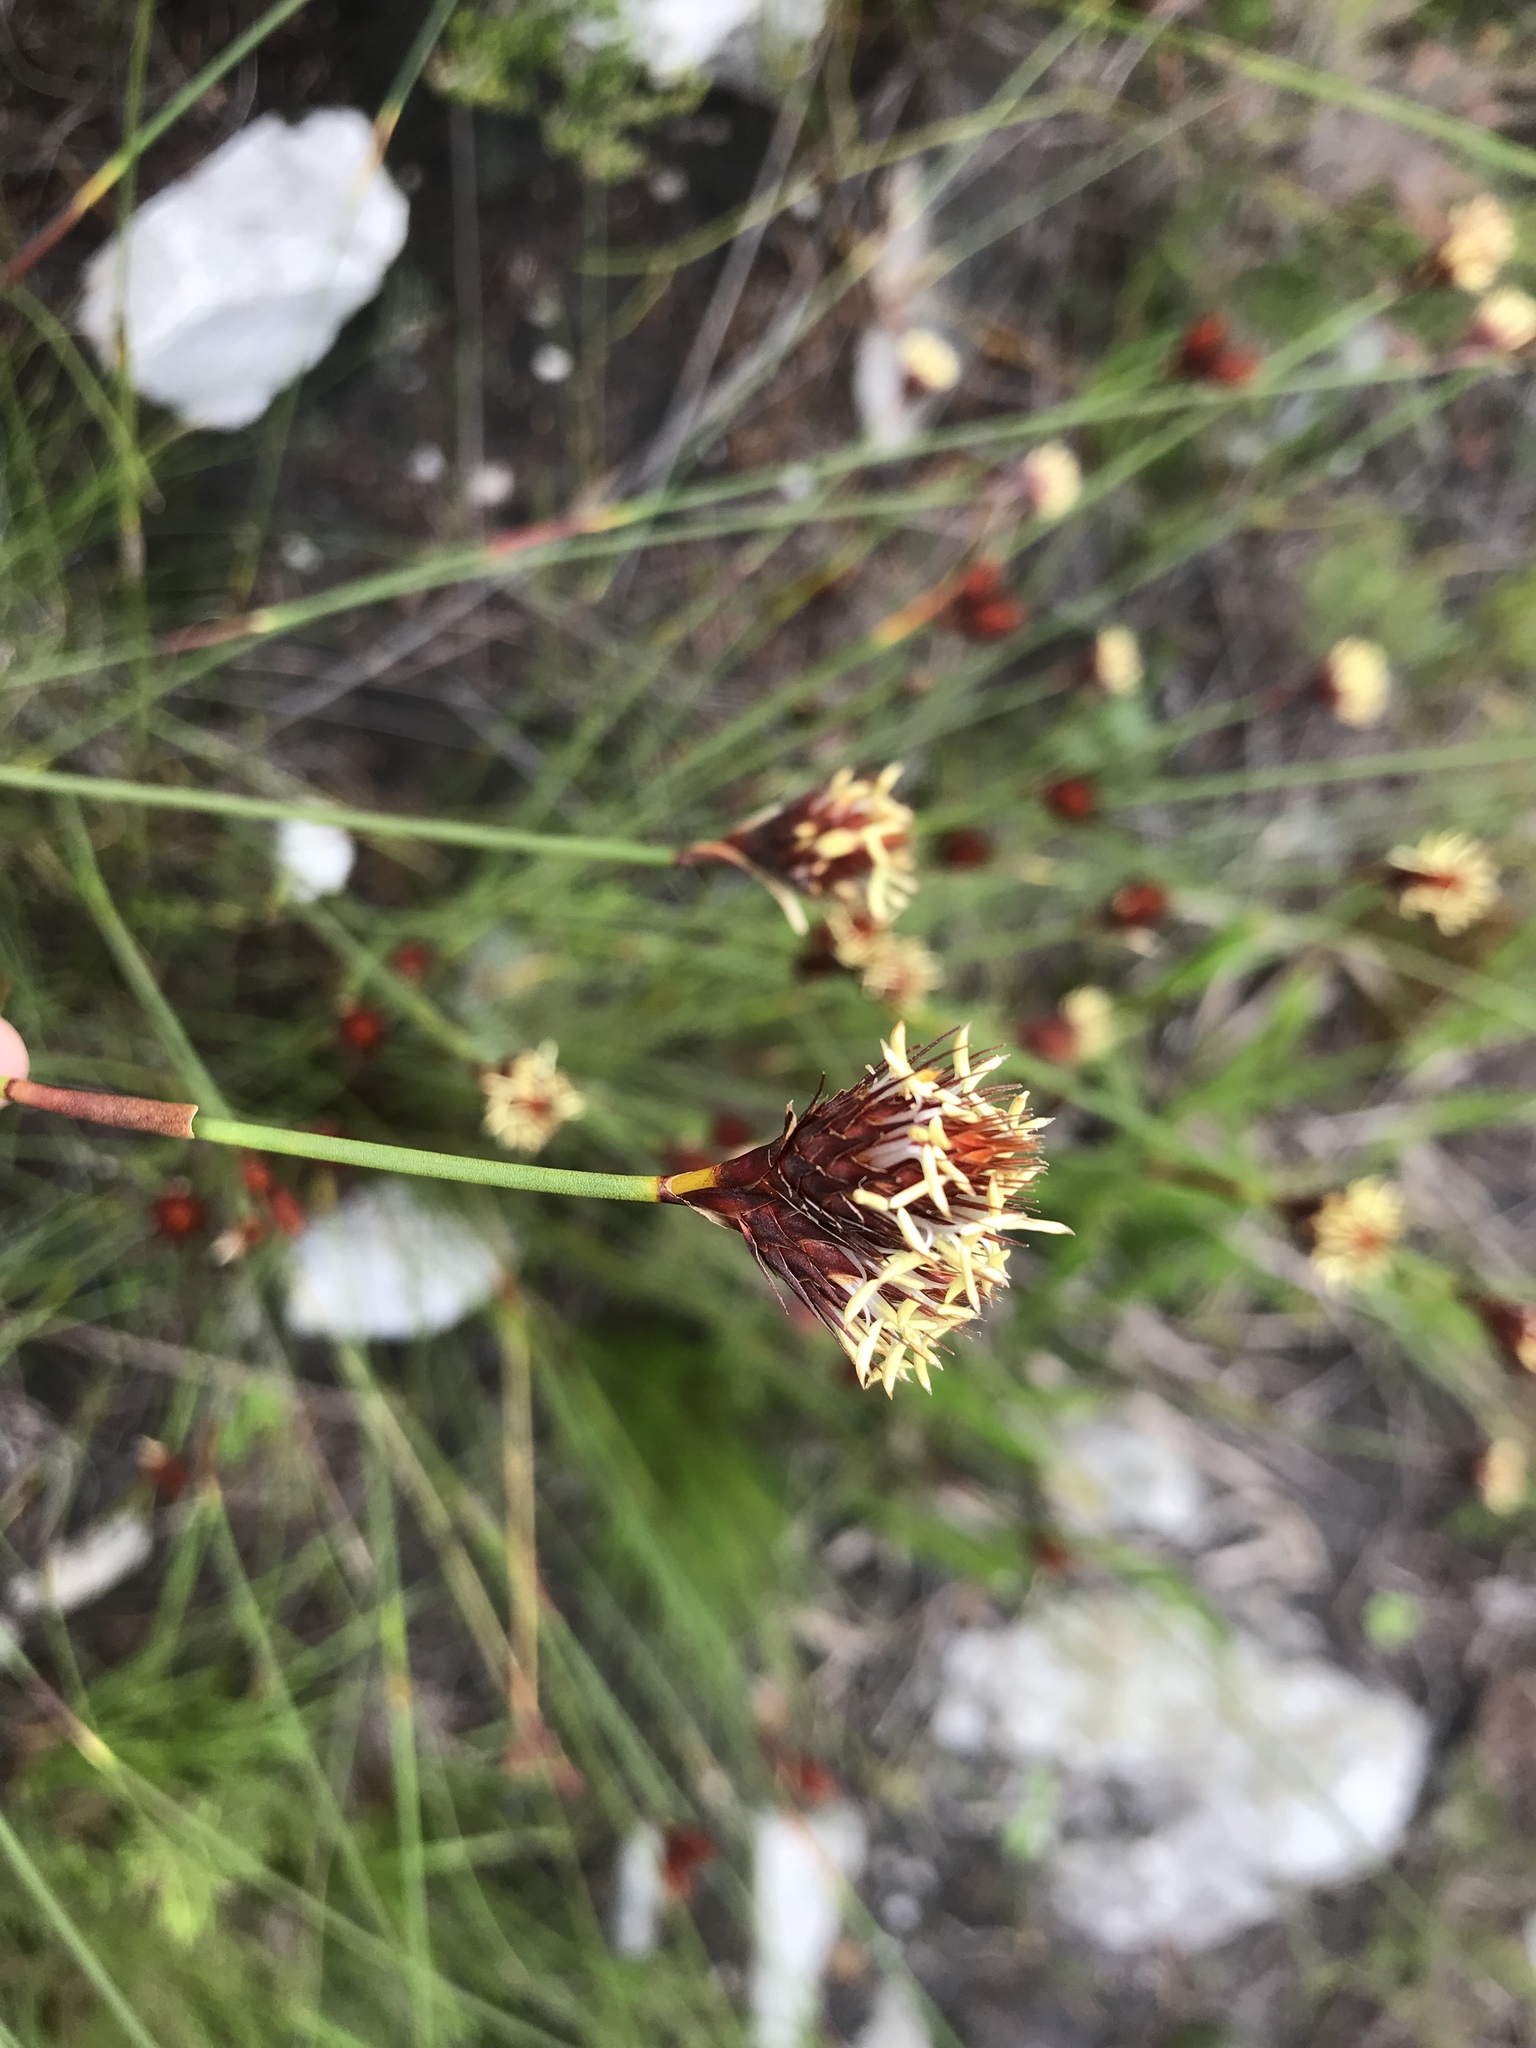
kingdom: Plantae
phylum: Tracheophyta
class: Liliopsida
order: Poales
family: Restionaceae
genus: Hypodiscus
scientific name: Hypodiscus aristatus
